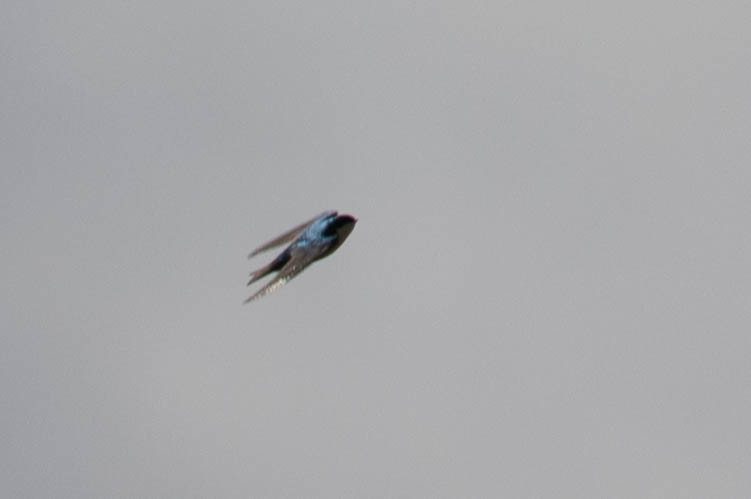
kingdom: Animalia
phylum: Chordata
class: Aves
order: Passeriformes
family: Hirundinidae
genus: Tachycineta
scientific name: Tachycineta bicolor
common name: Tree swallow
